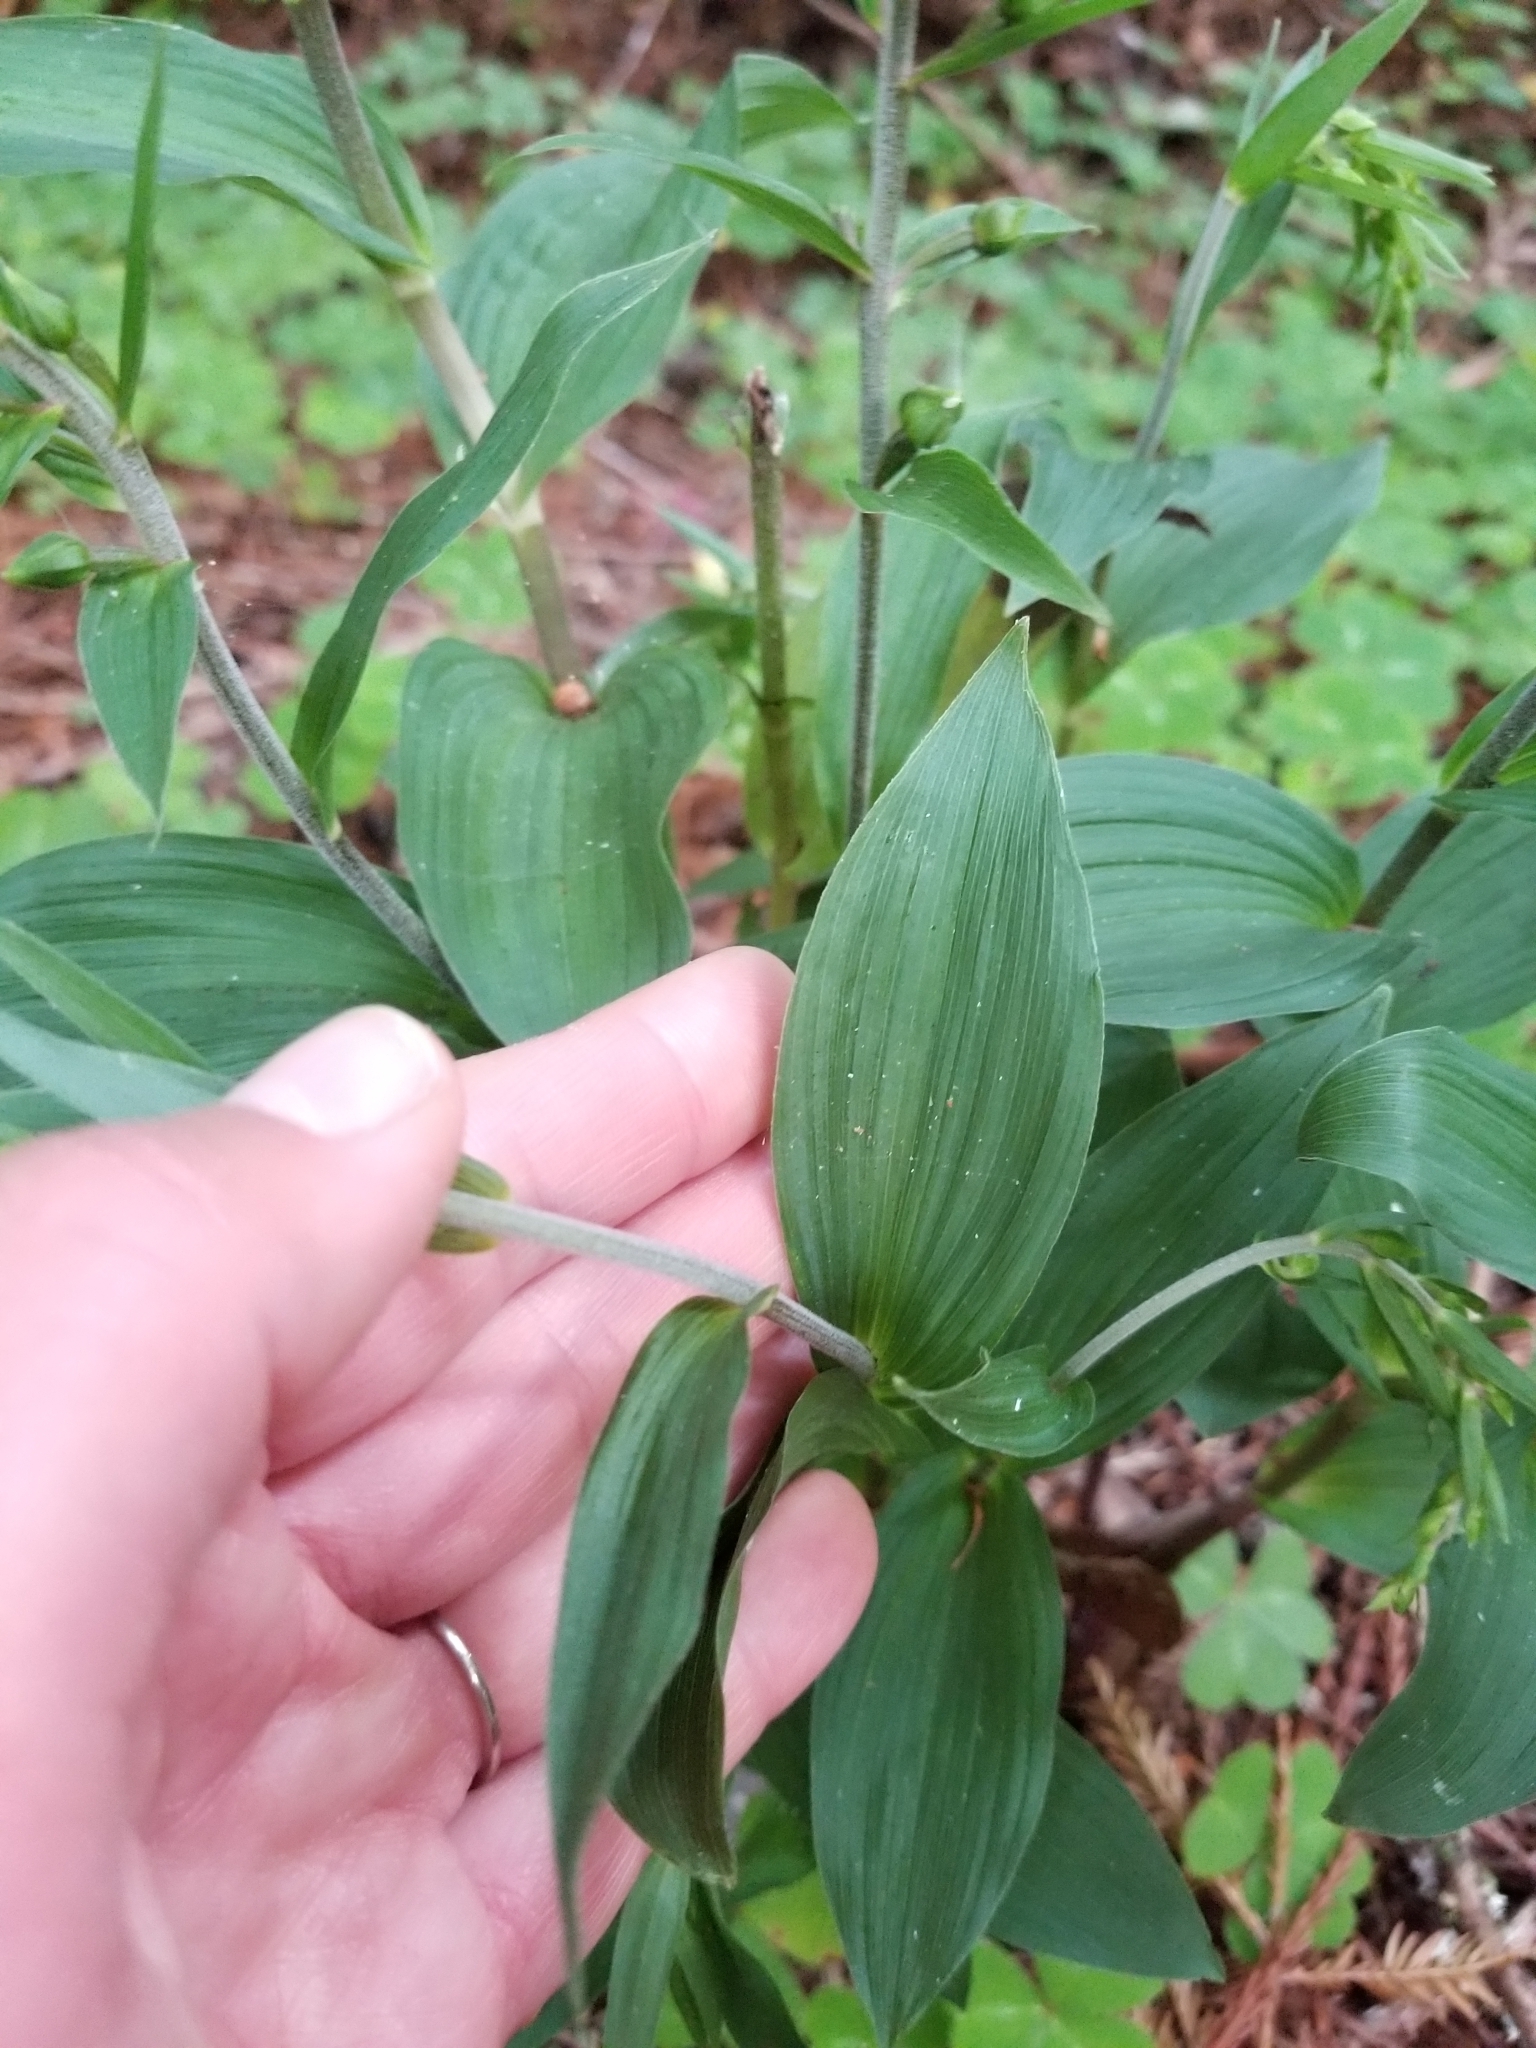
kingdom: Plantae
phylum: Tracheophyta
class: Liliopsida
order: Asparagales
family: Orchidaceae
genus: Epipactis
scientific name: Epipactis helleborine
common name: Broad-leaved helleborine
